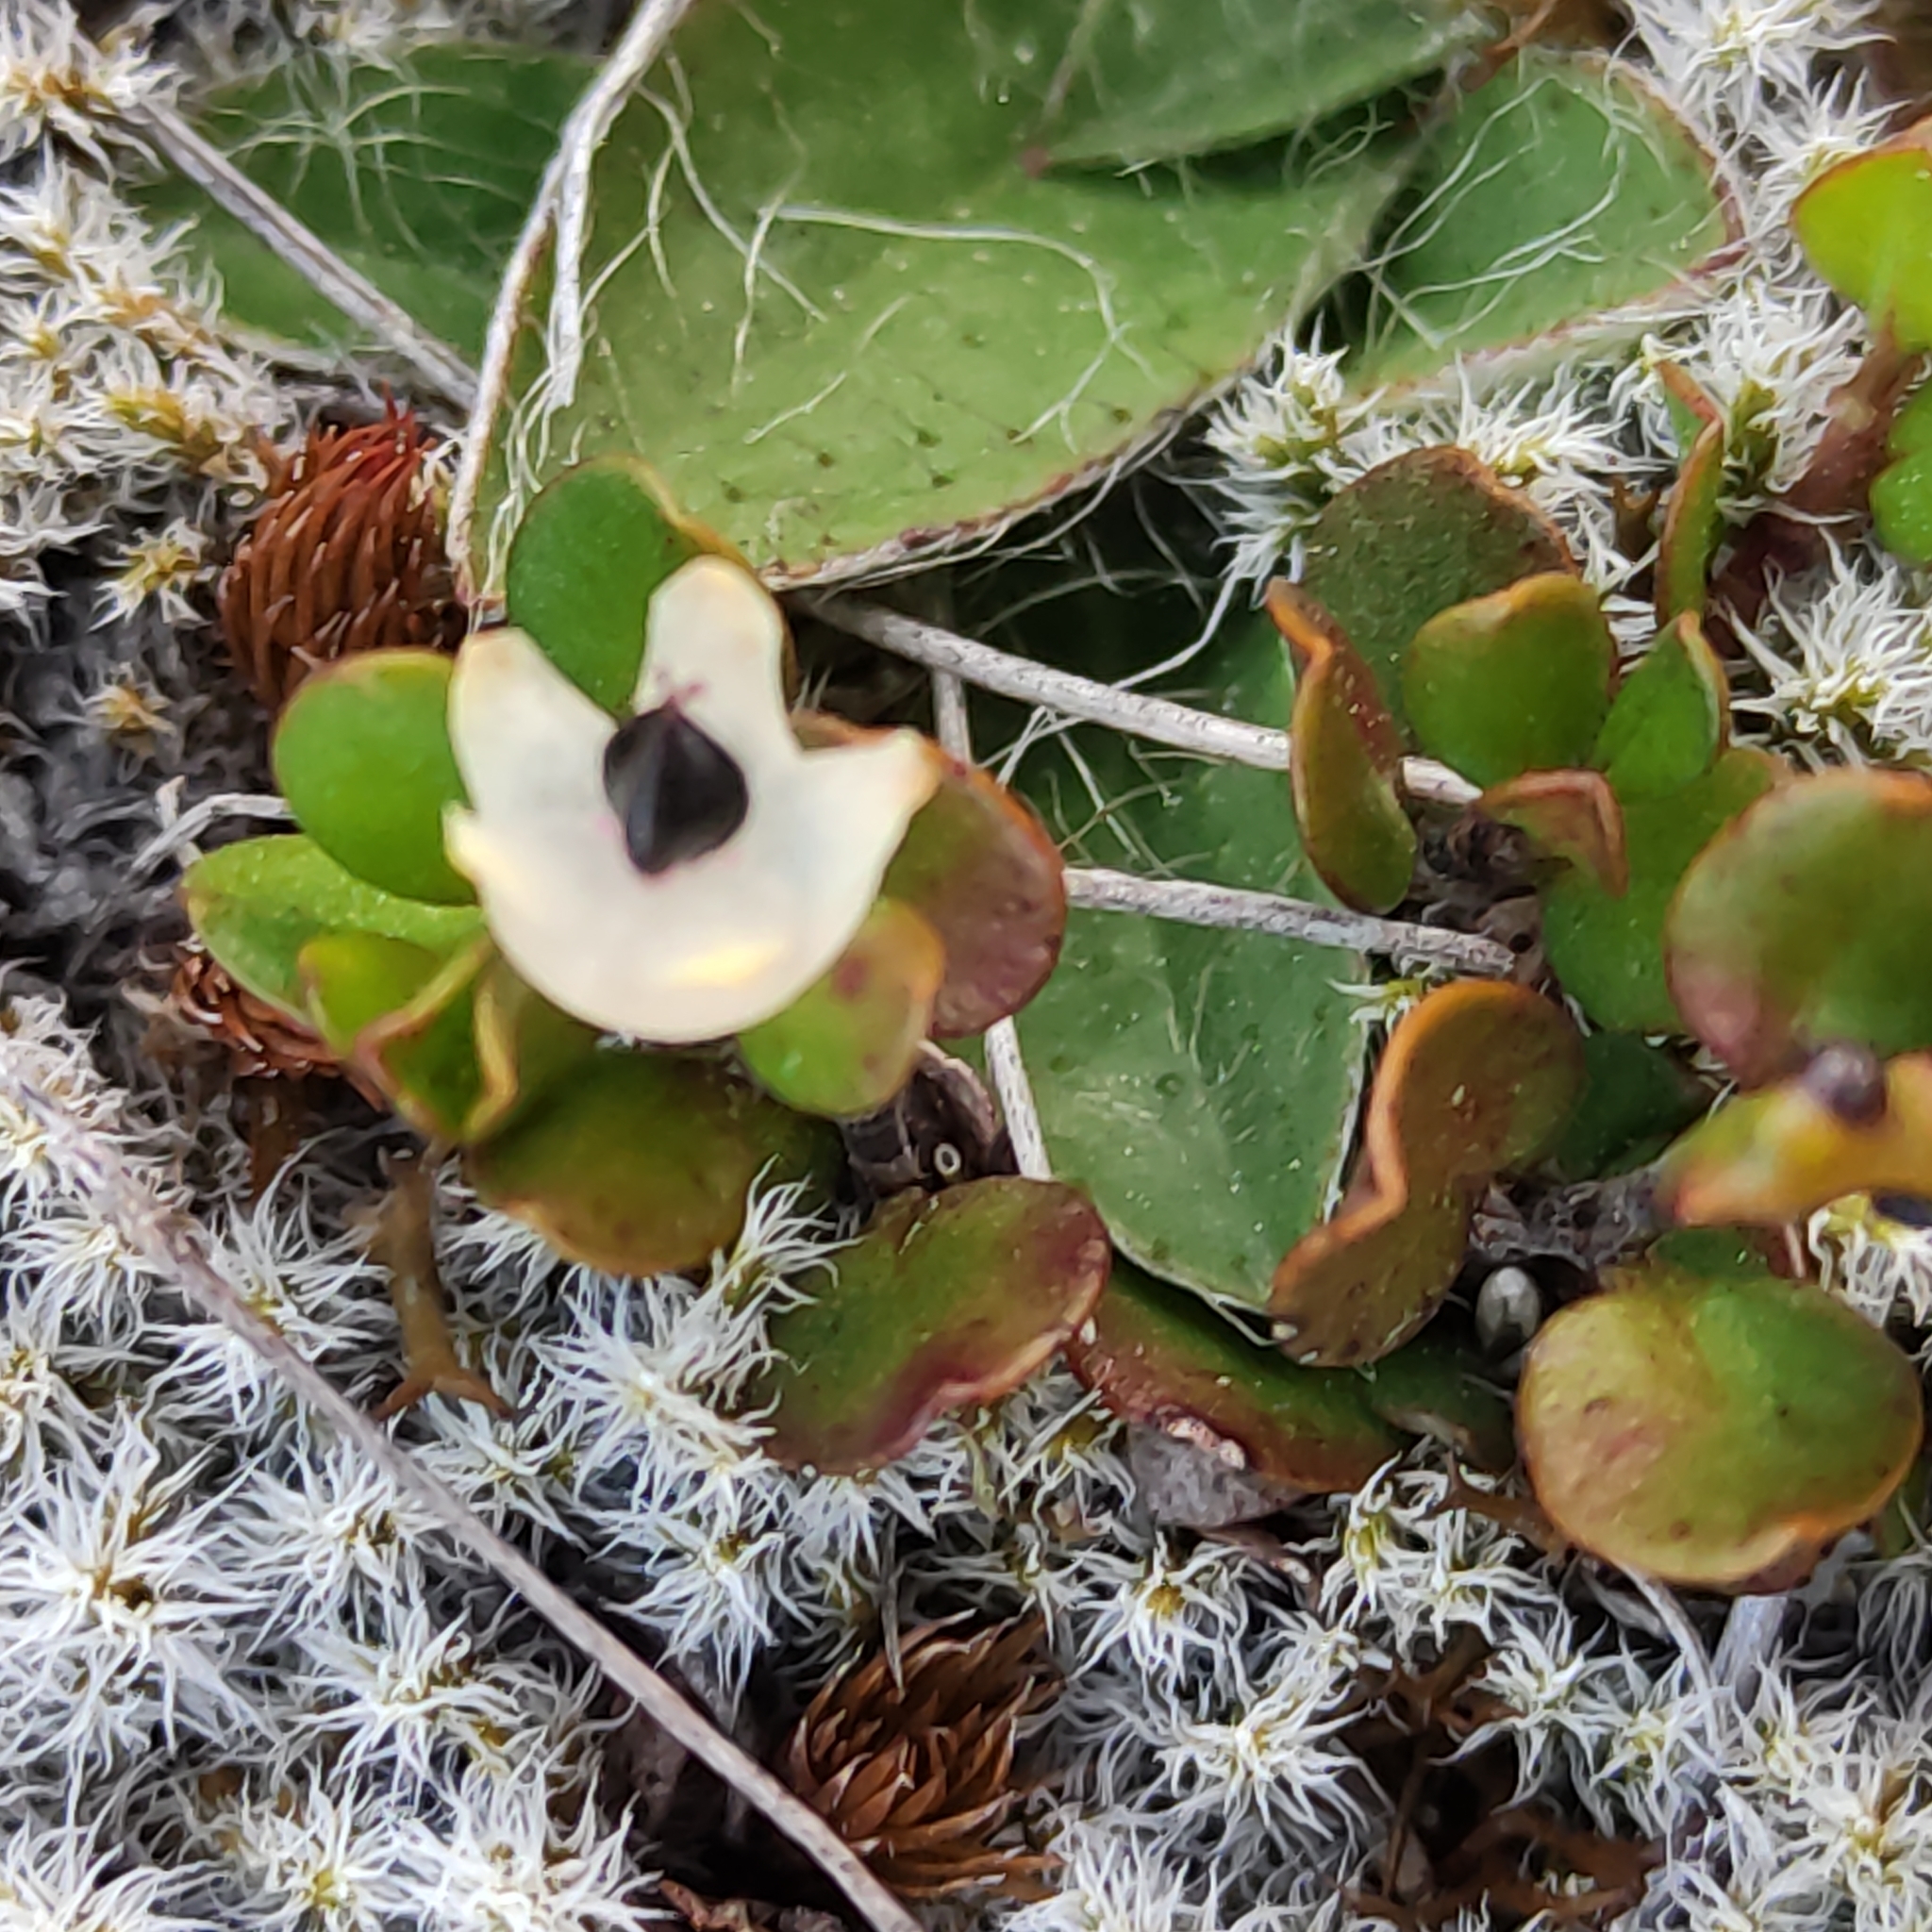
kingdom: Plantae
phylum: Tracheophyta
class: Magnoliopsida
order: Caryophyllales
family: Polygonaceae
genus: Muehlenbeckia
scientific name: Muehlenbeckia axillaris
